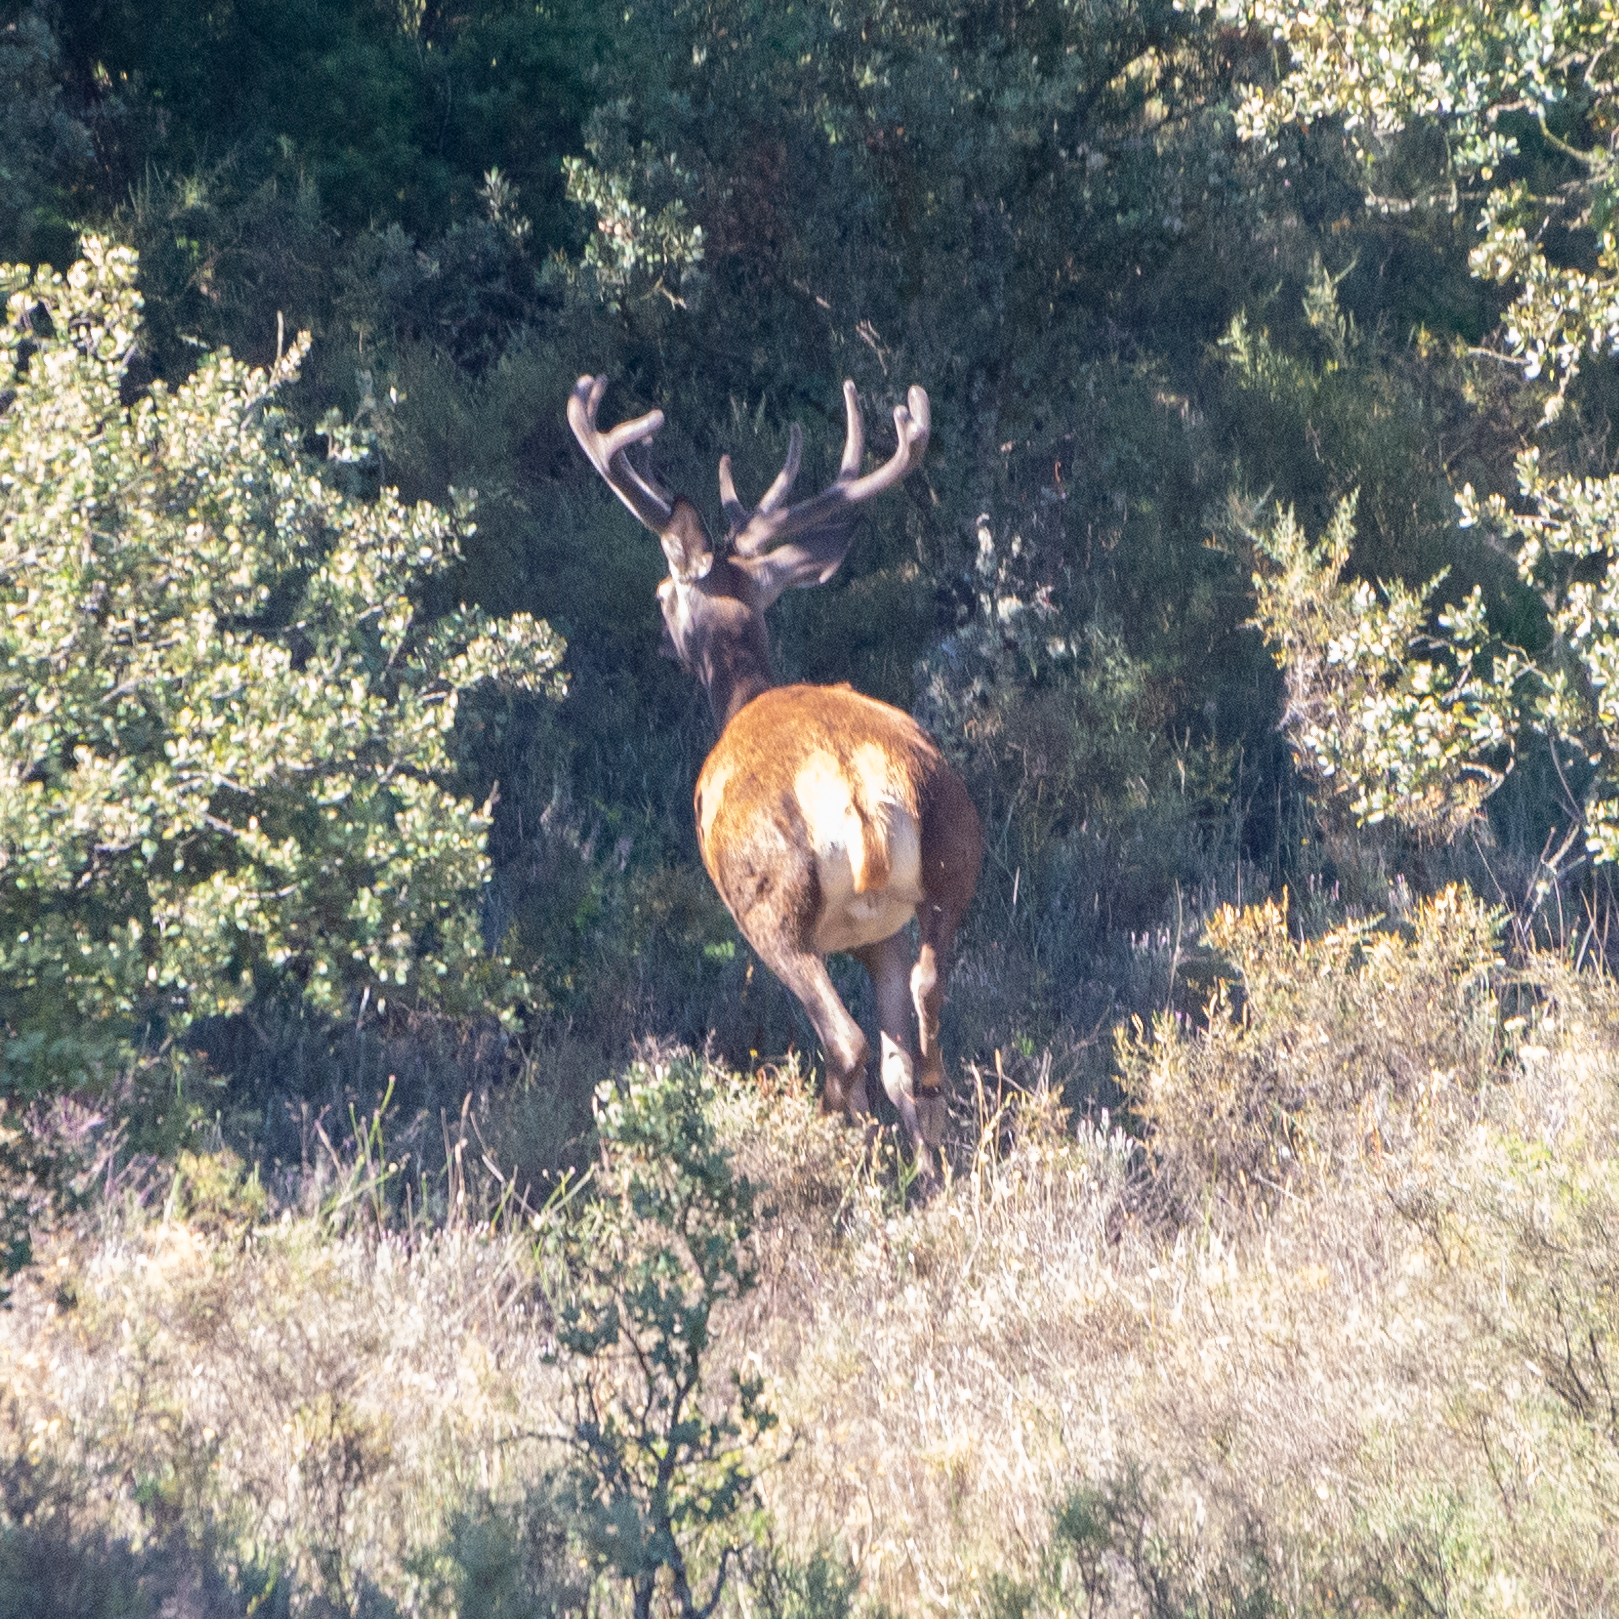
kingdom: Animalia
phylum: Chordata
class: Mammalia
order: Artiodactyla
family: Cervidae
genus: Cervus
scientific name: Cervus elaphus
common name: Red deer
